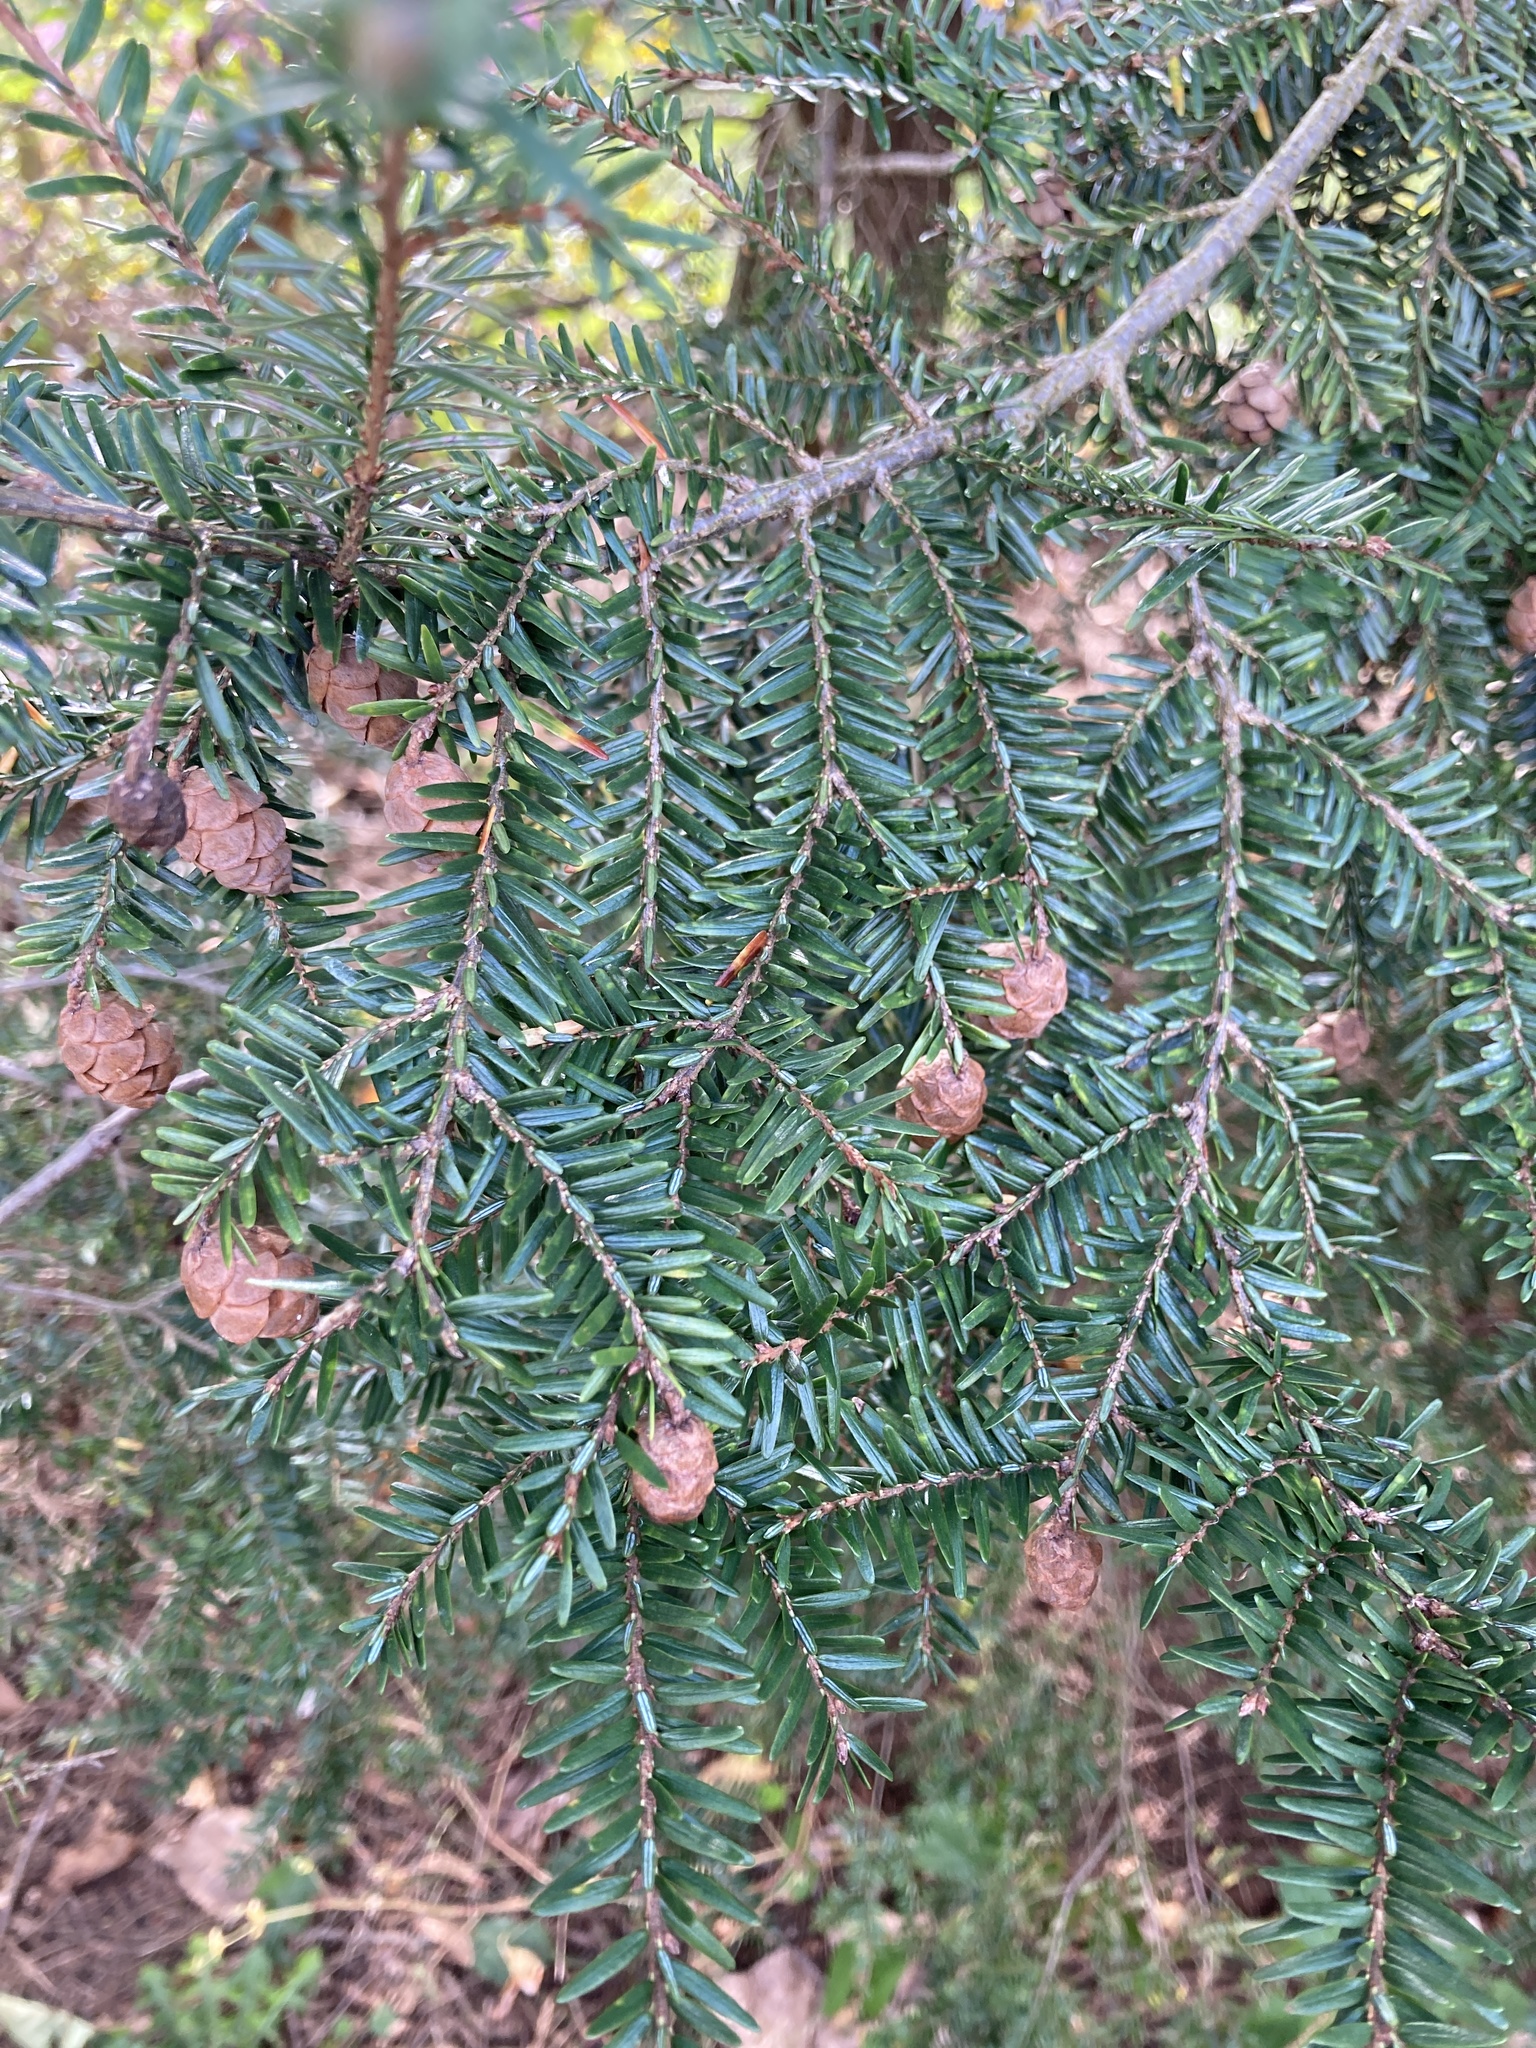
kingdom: Plantae
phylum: Tracheophyta
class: Pinopsida
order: Pinales
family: Pinaceae
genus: Tsuga
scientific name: Tsuga canadensis
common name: Eastern hemlock
